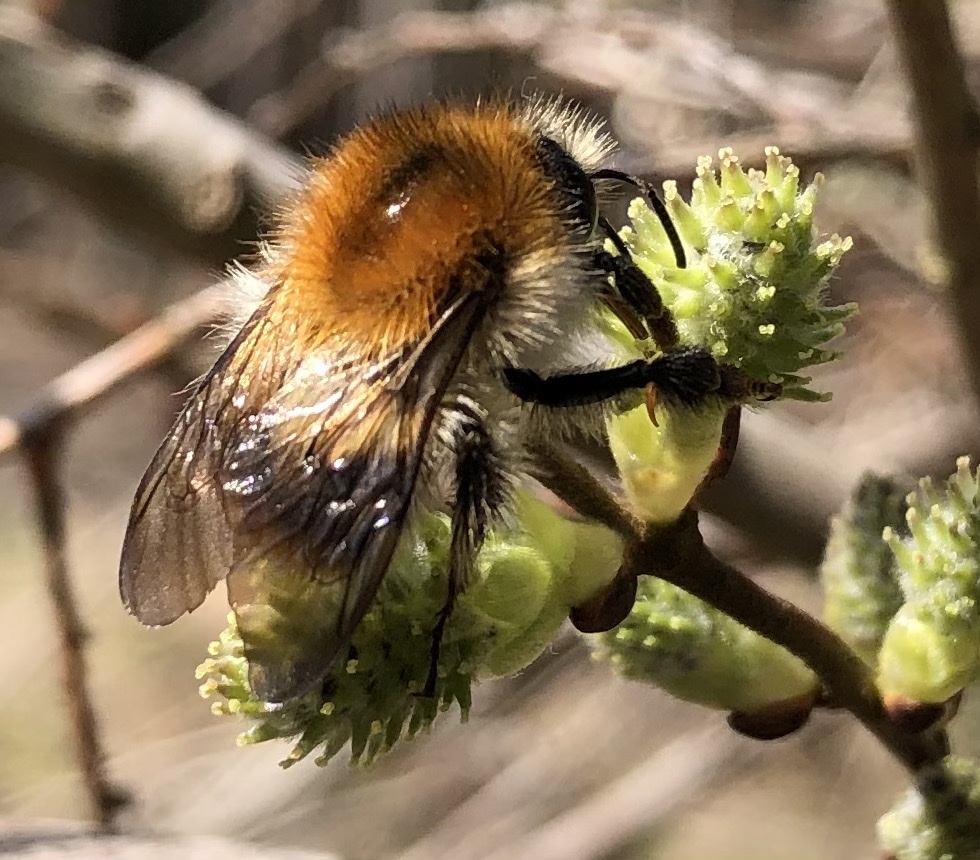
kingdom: Animalia
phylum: Arthropoda
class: Insecta
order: Hymenoptera
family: Apidae
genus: Bombus
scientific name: Bombus pascuorum
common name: Common carder bee
